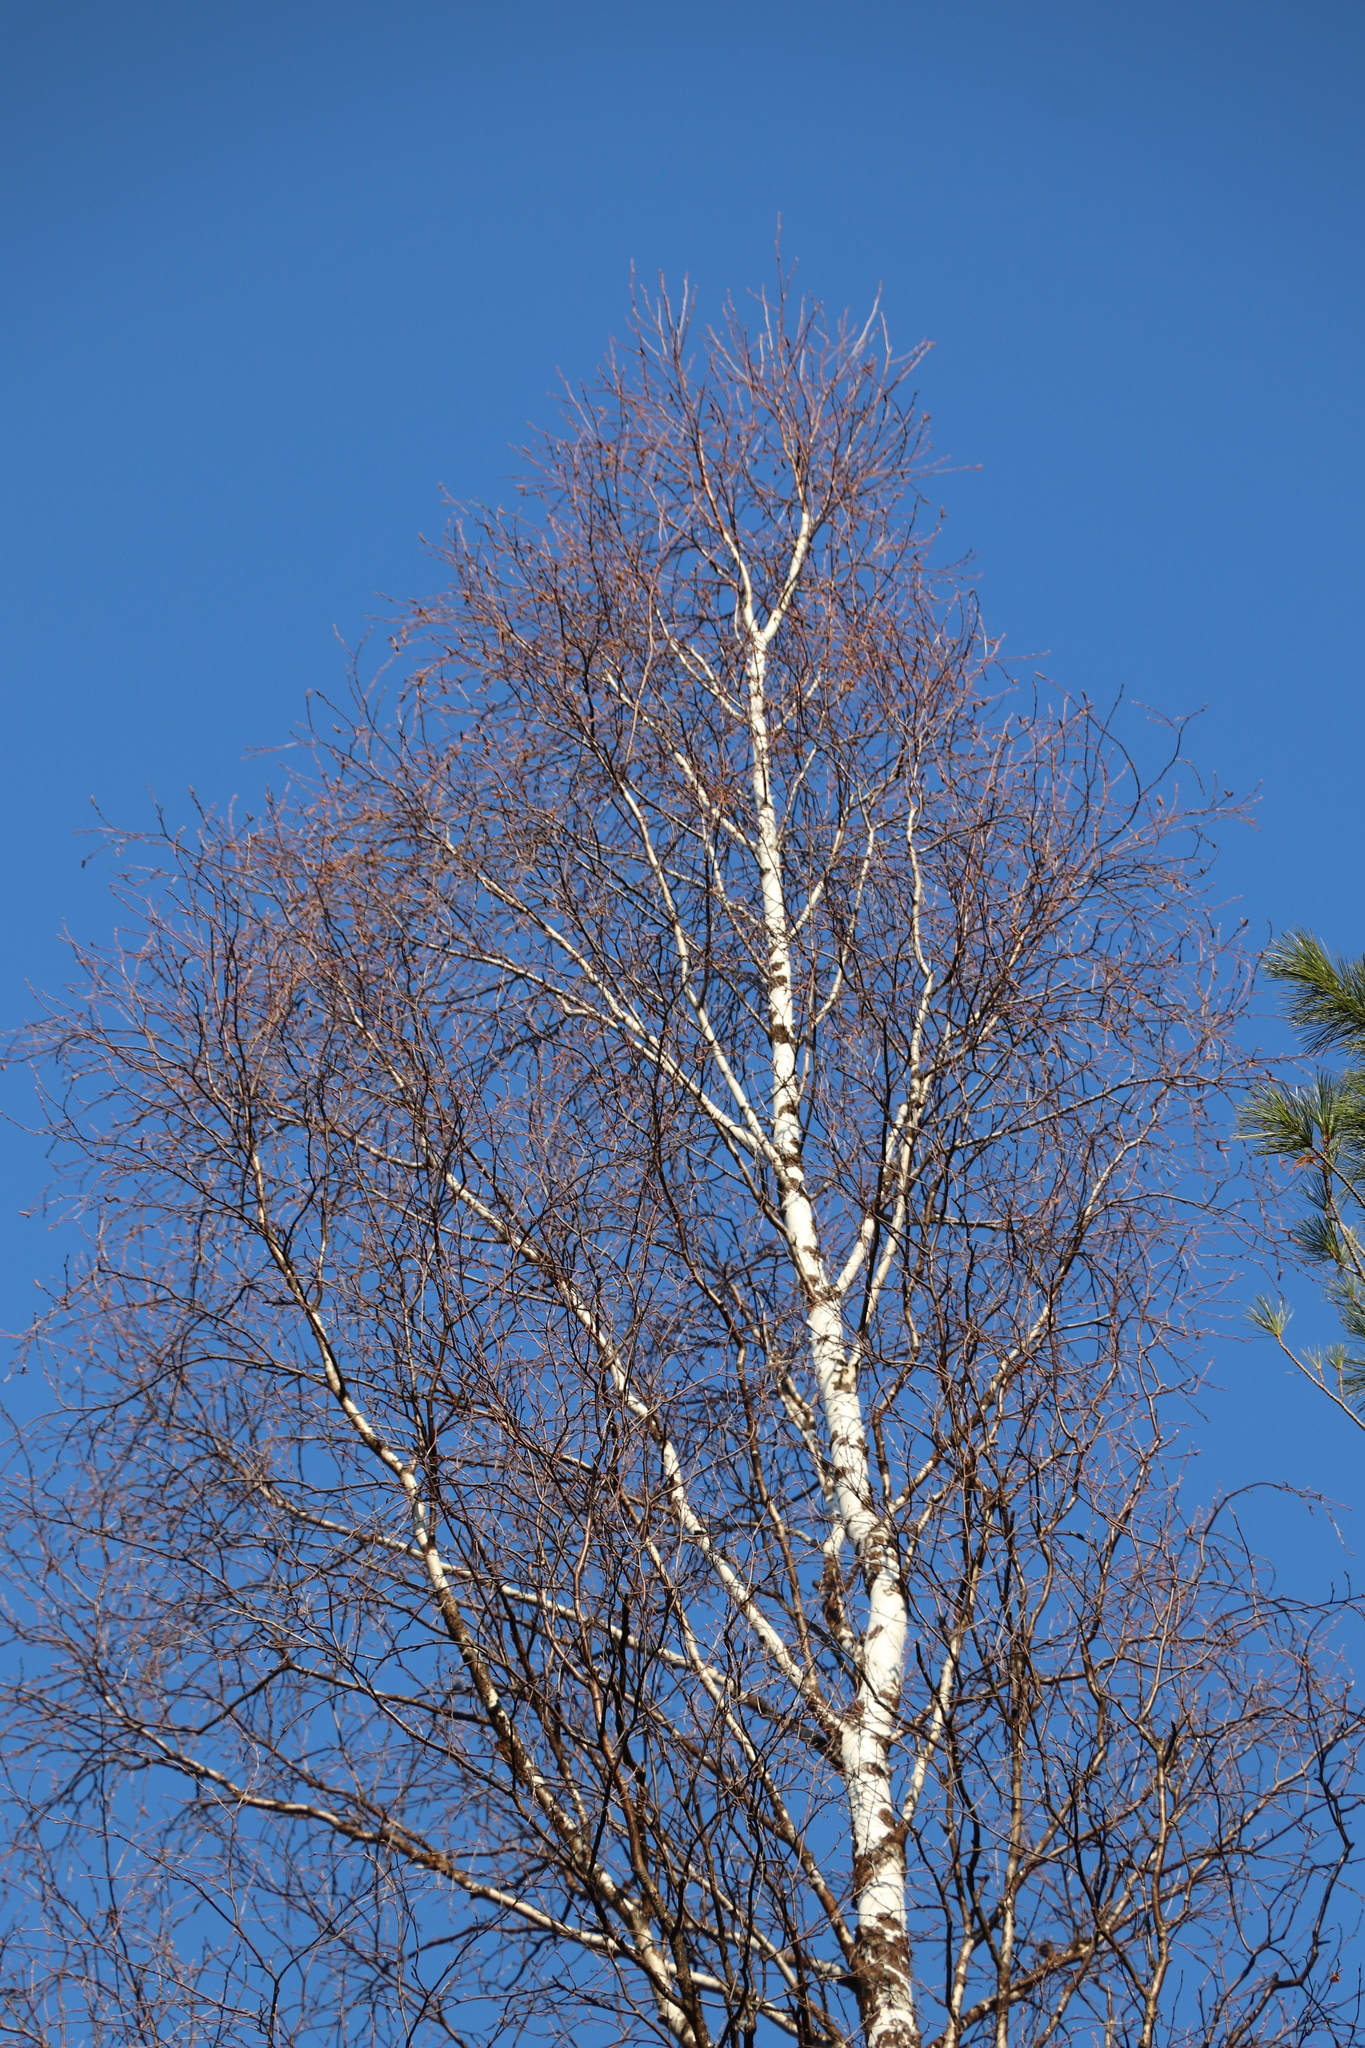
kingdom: Plantae
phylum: Tracheophyta
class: Magnoliopsida
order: Fagales
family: Betulaceae
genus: Betula
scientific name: Betula pubescens
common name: Downy birch
